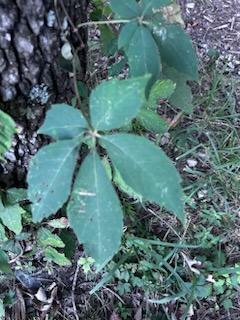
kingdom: Plantae
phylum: Tracheophyta
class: Magnoliopsida
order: Vitales
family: Vitaceae
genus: Parthenocissus
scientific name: Parthenocissus quinquefolia
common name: Virginia-creeper
